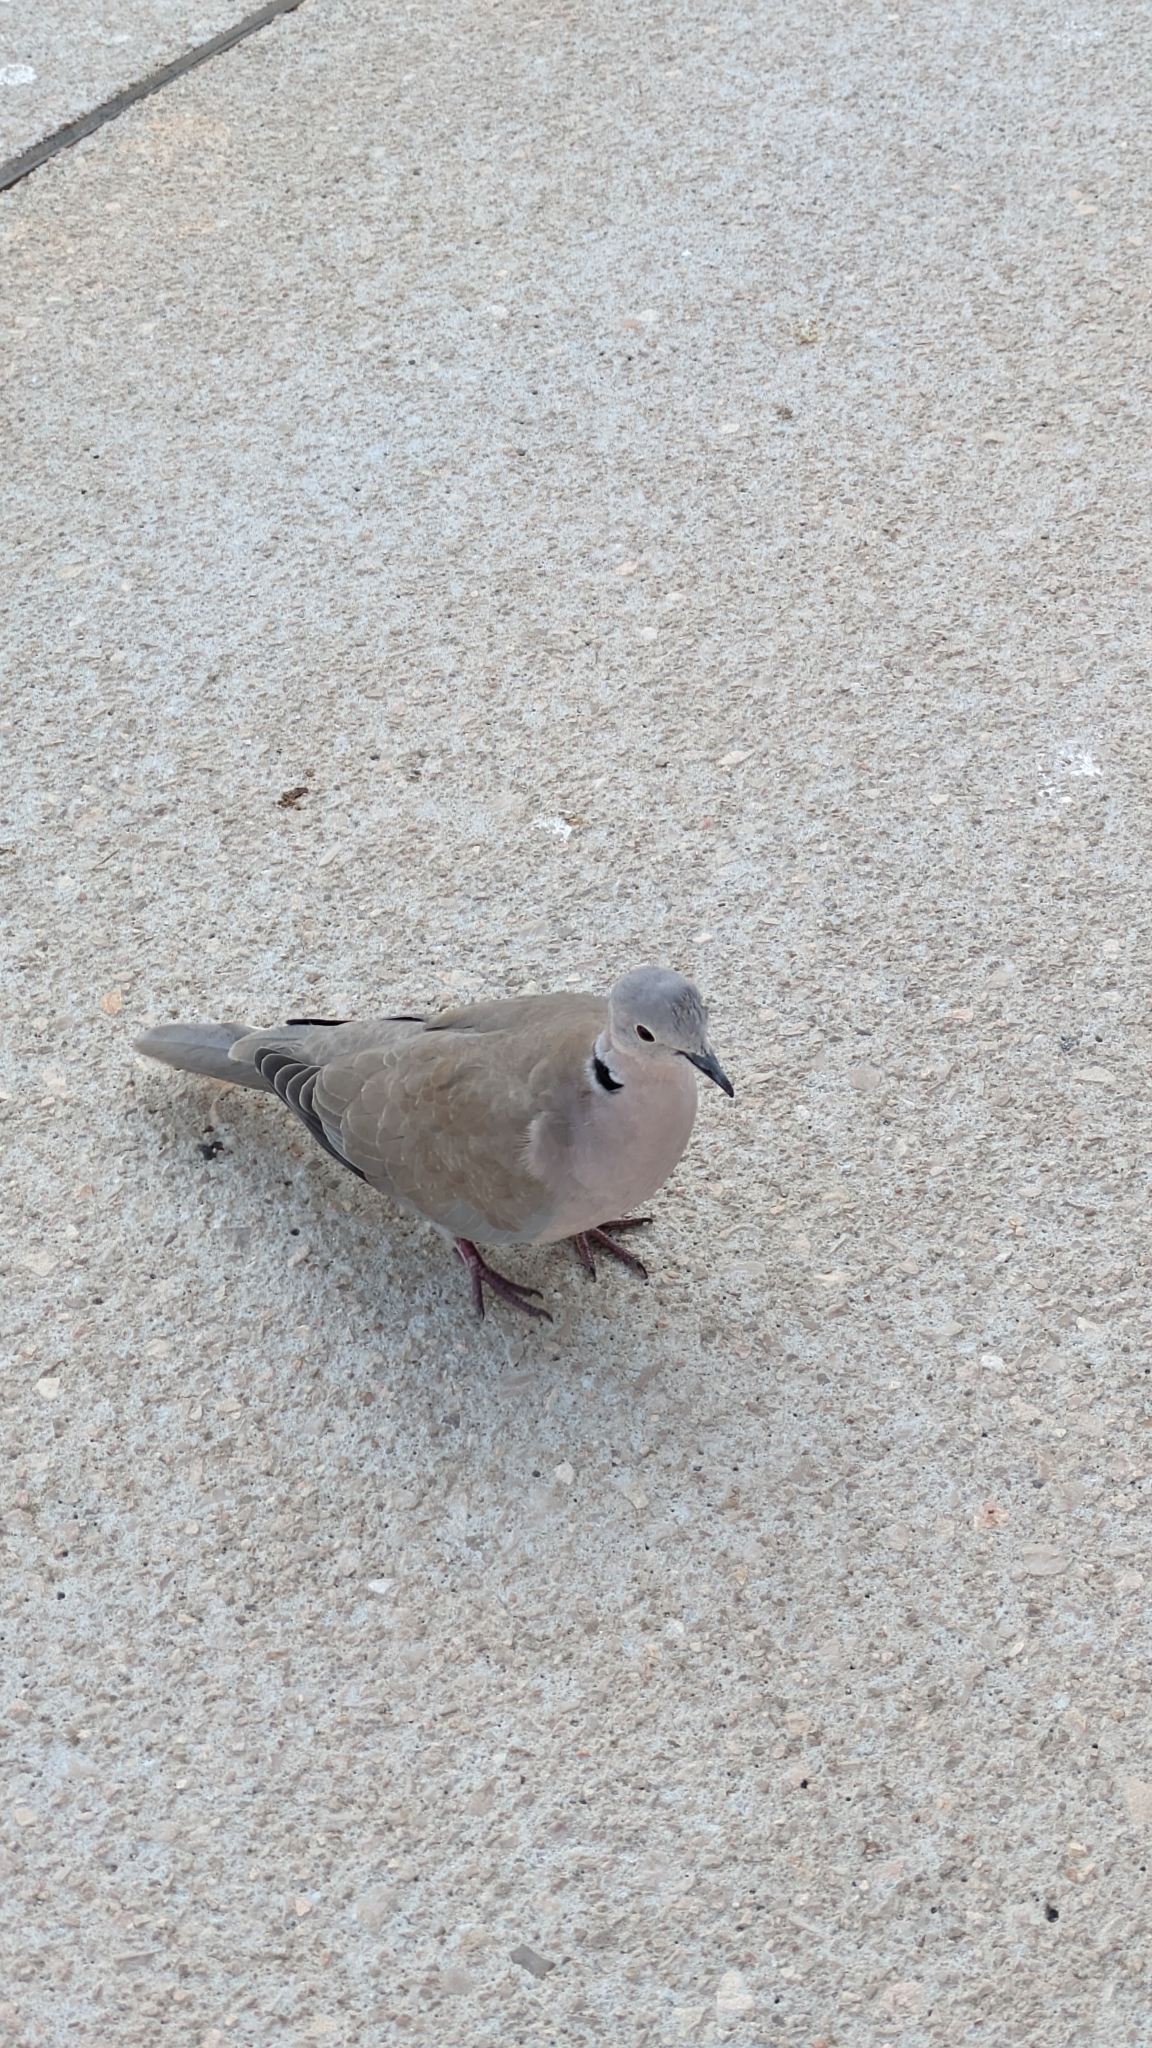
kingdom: Animalia
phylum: Chordata
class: Aves
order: Columbiformes
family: Columbidae
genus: Streptopelia
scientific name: Streptopelia decaocto
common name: Eurasian collared dove
